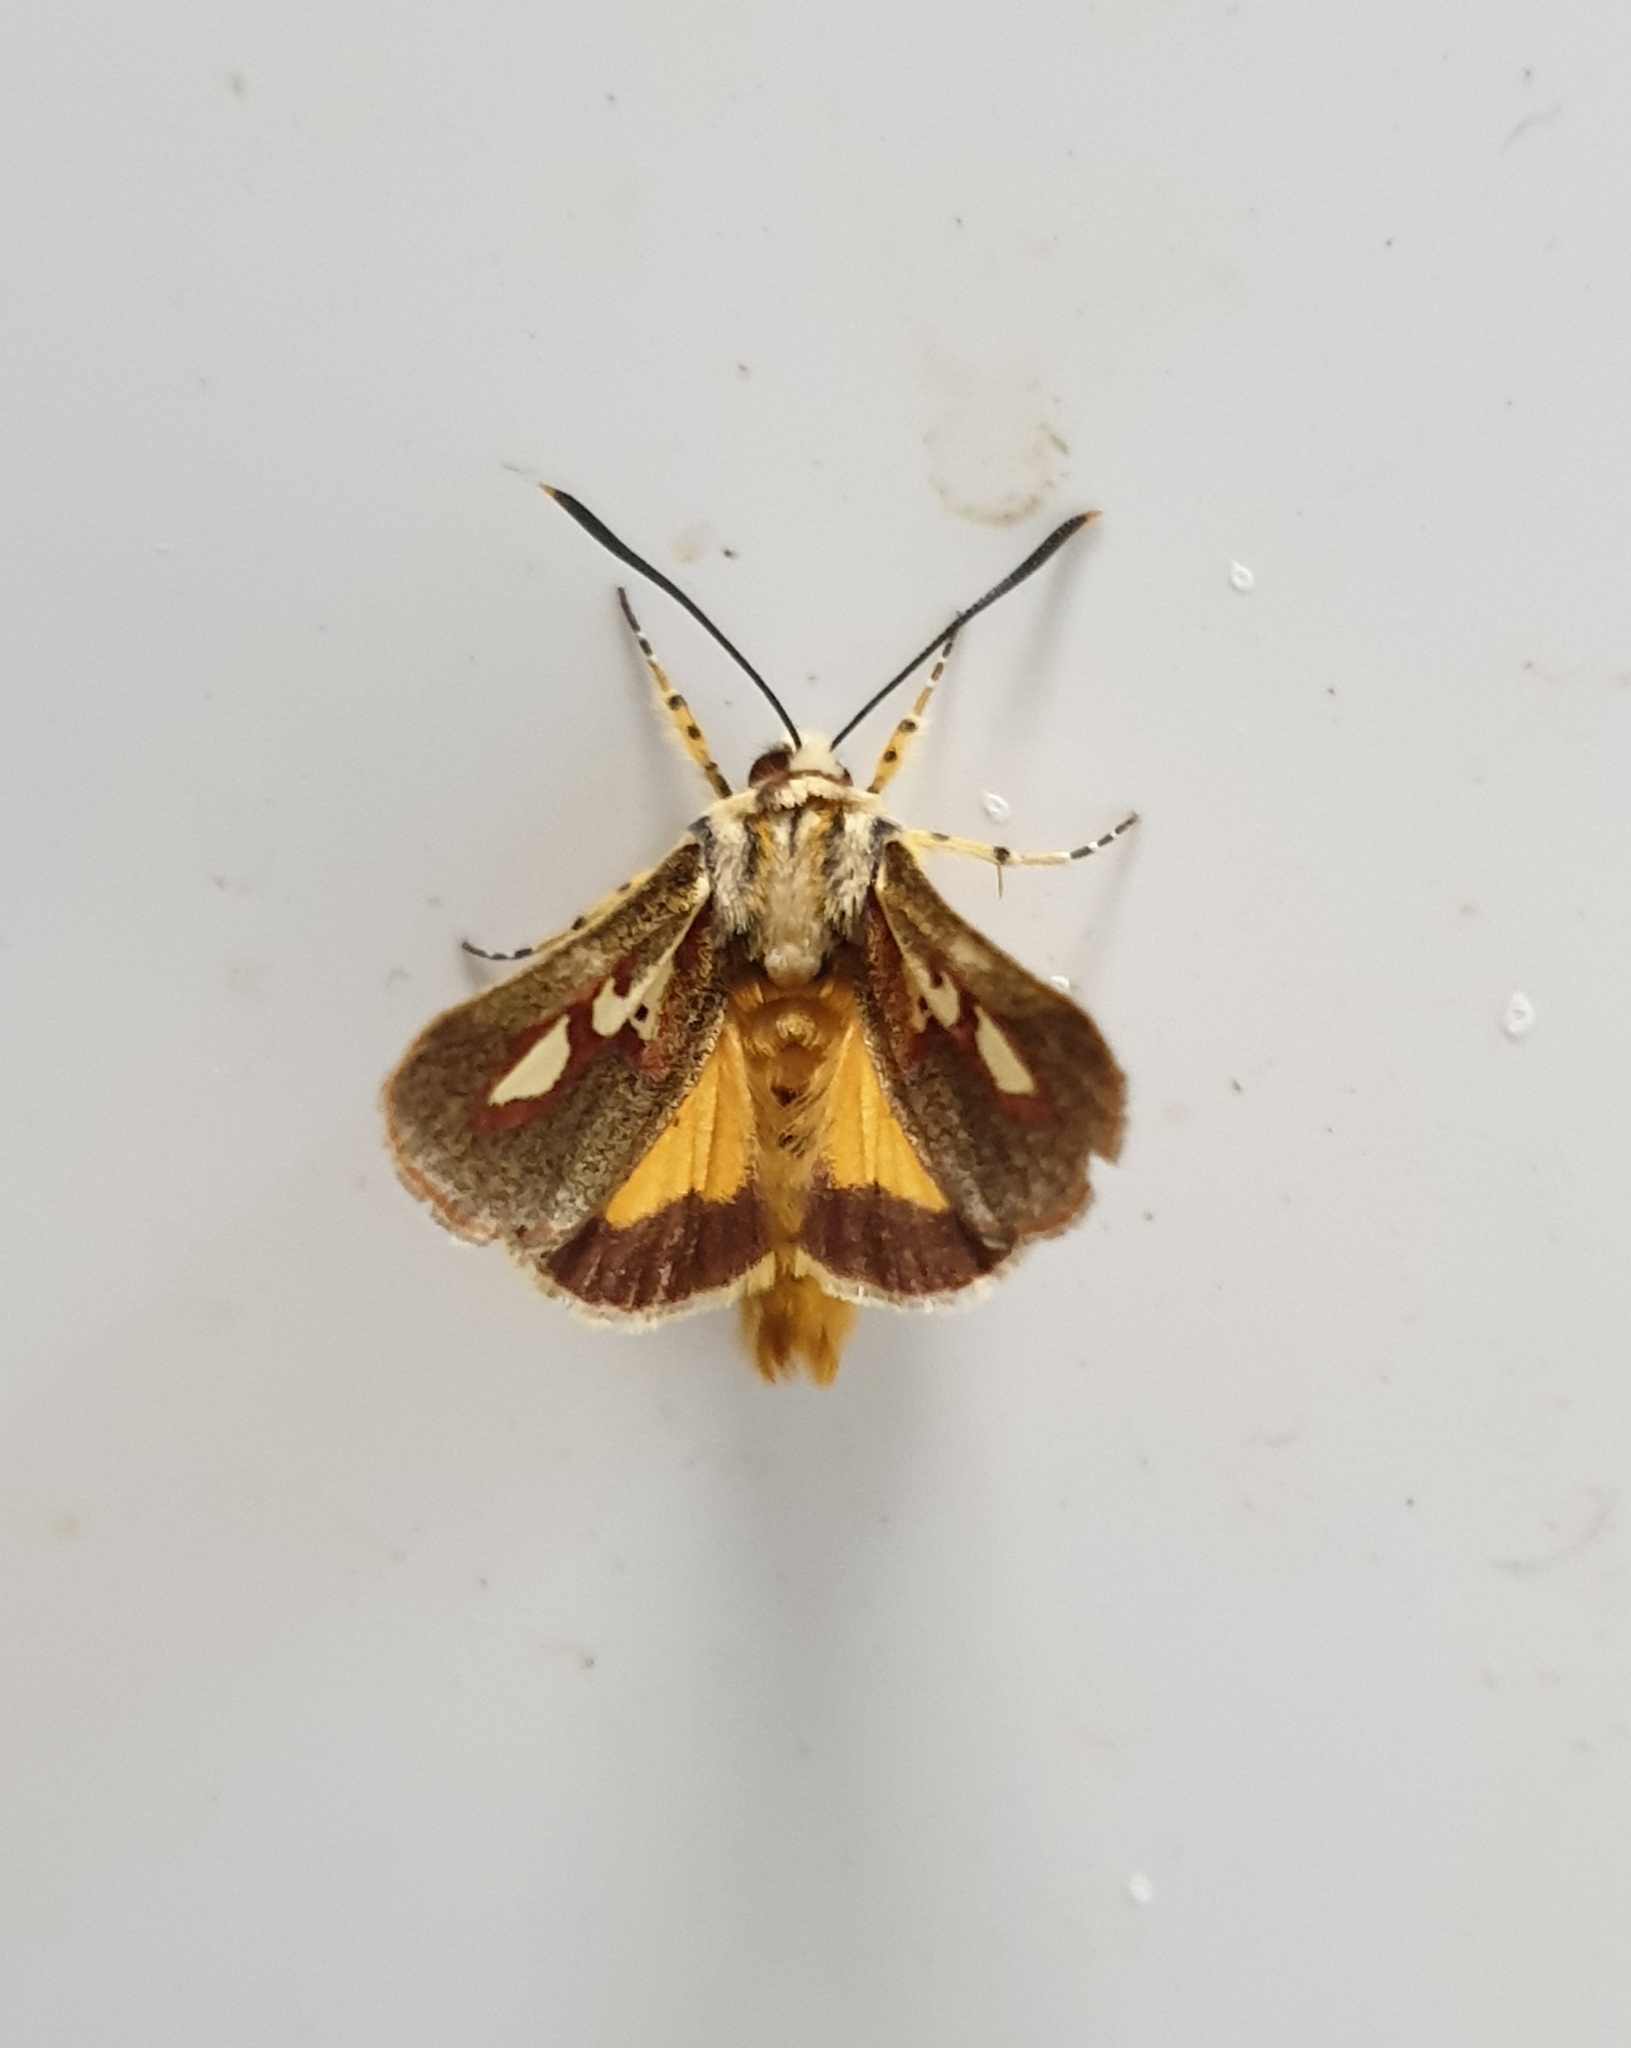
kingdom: Animalia
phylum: Arthropoda
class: Insecta
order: Lepidoptera
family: Noctuidae
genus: Aegocera
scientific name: Aegocera venulia
